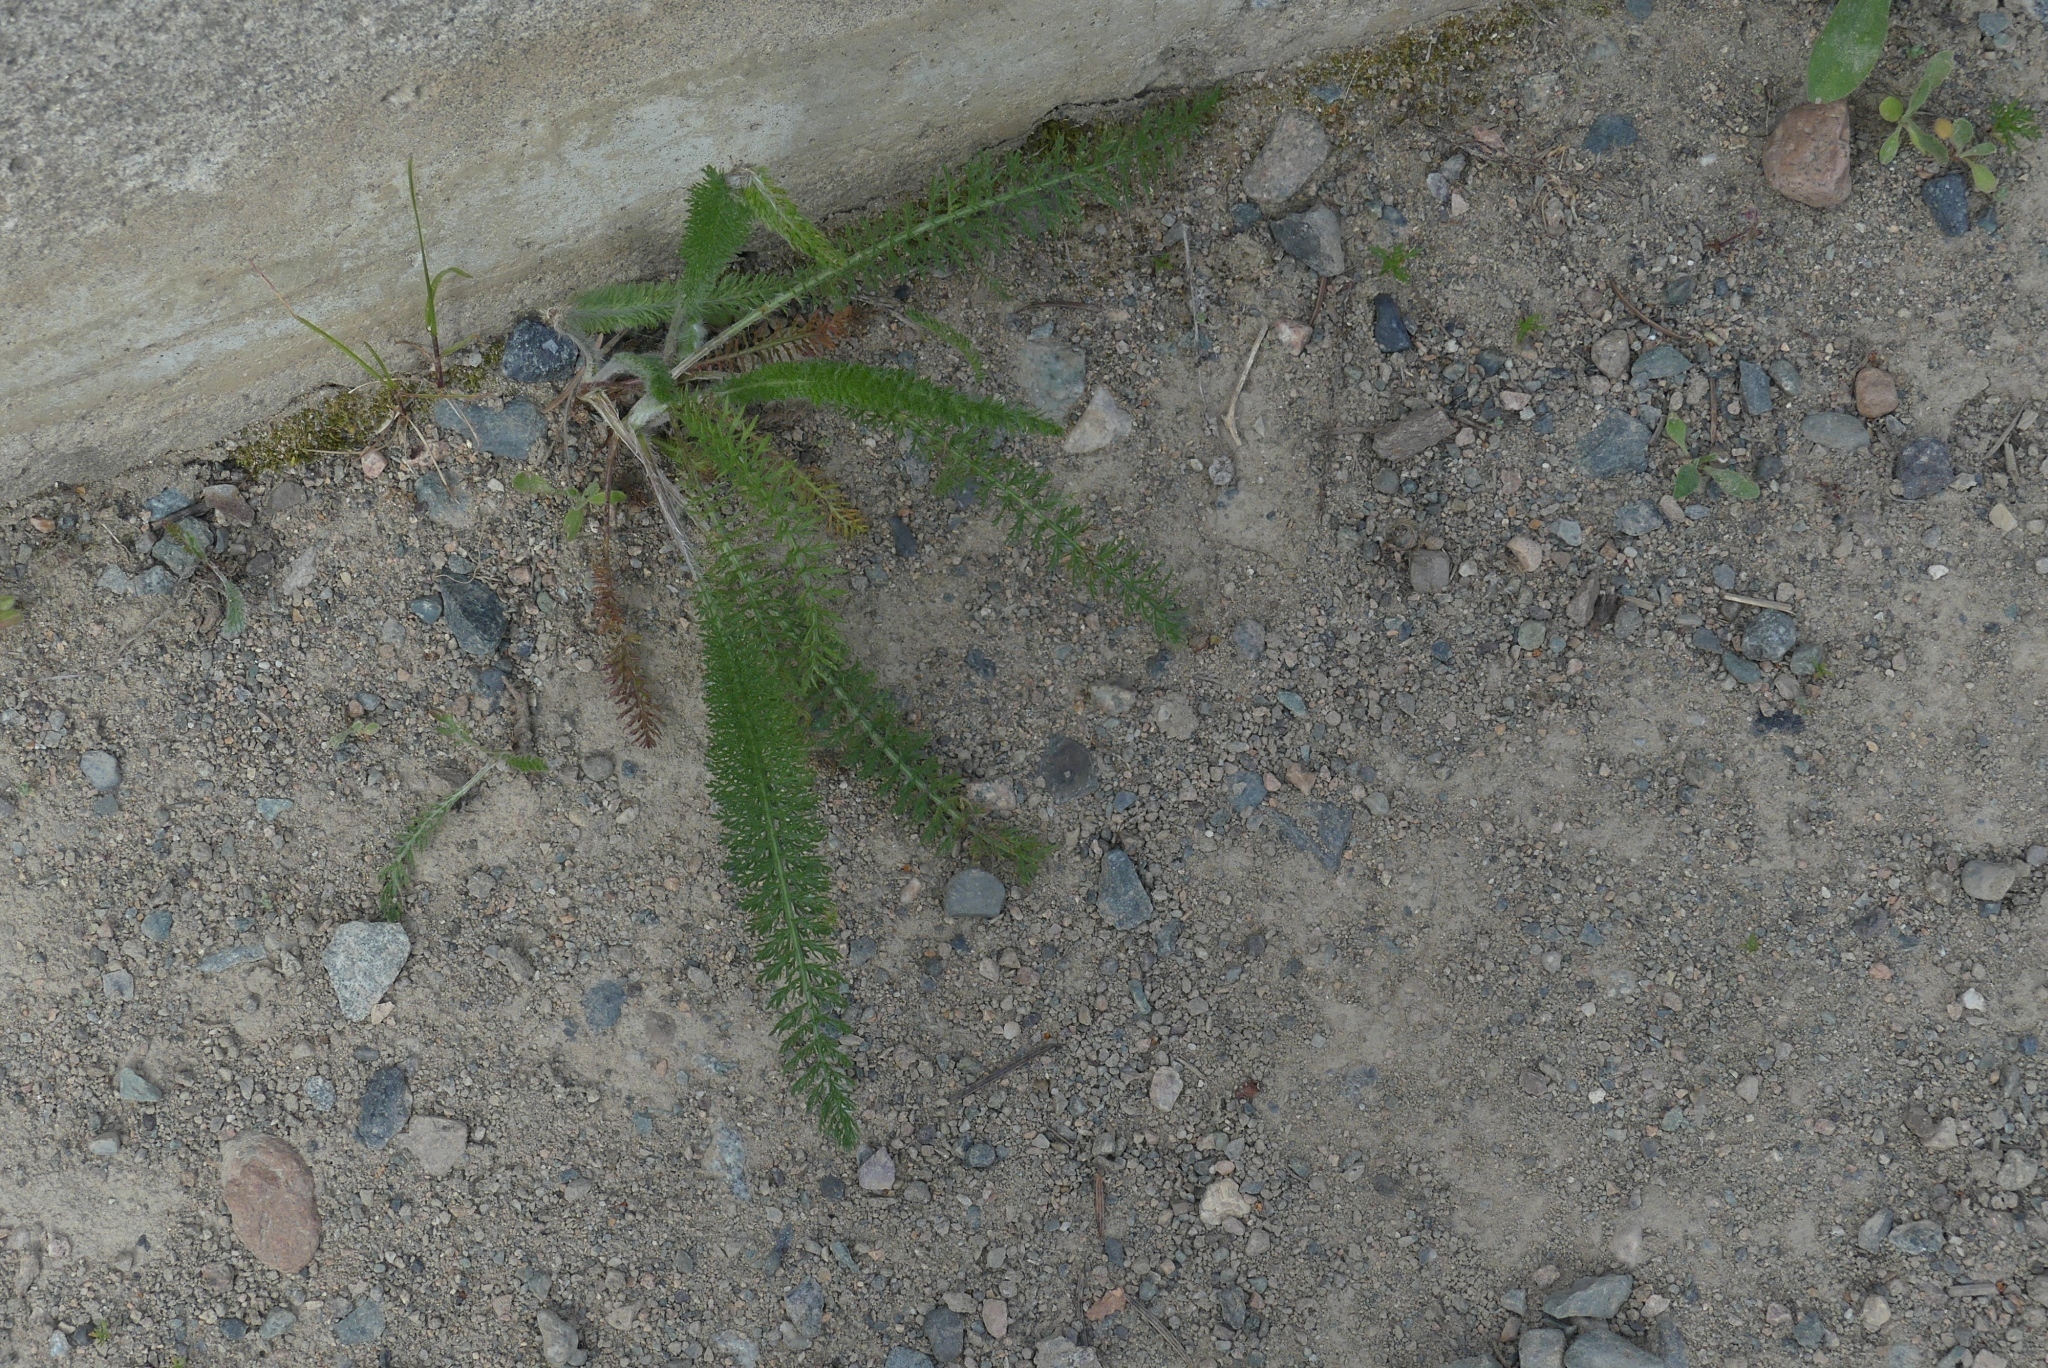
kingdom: Plantae
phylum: Tracheophyta
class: Magnoliopsida
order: Asterales
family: Asteraceae
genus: Achillea
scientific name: Achillea millefolium
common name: Yarrow
